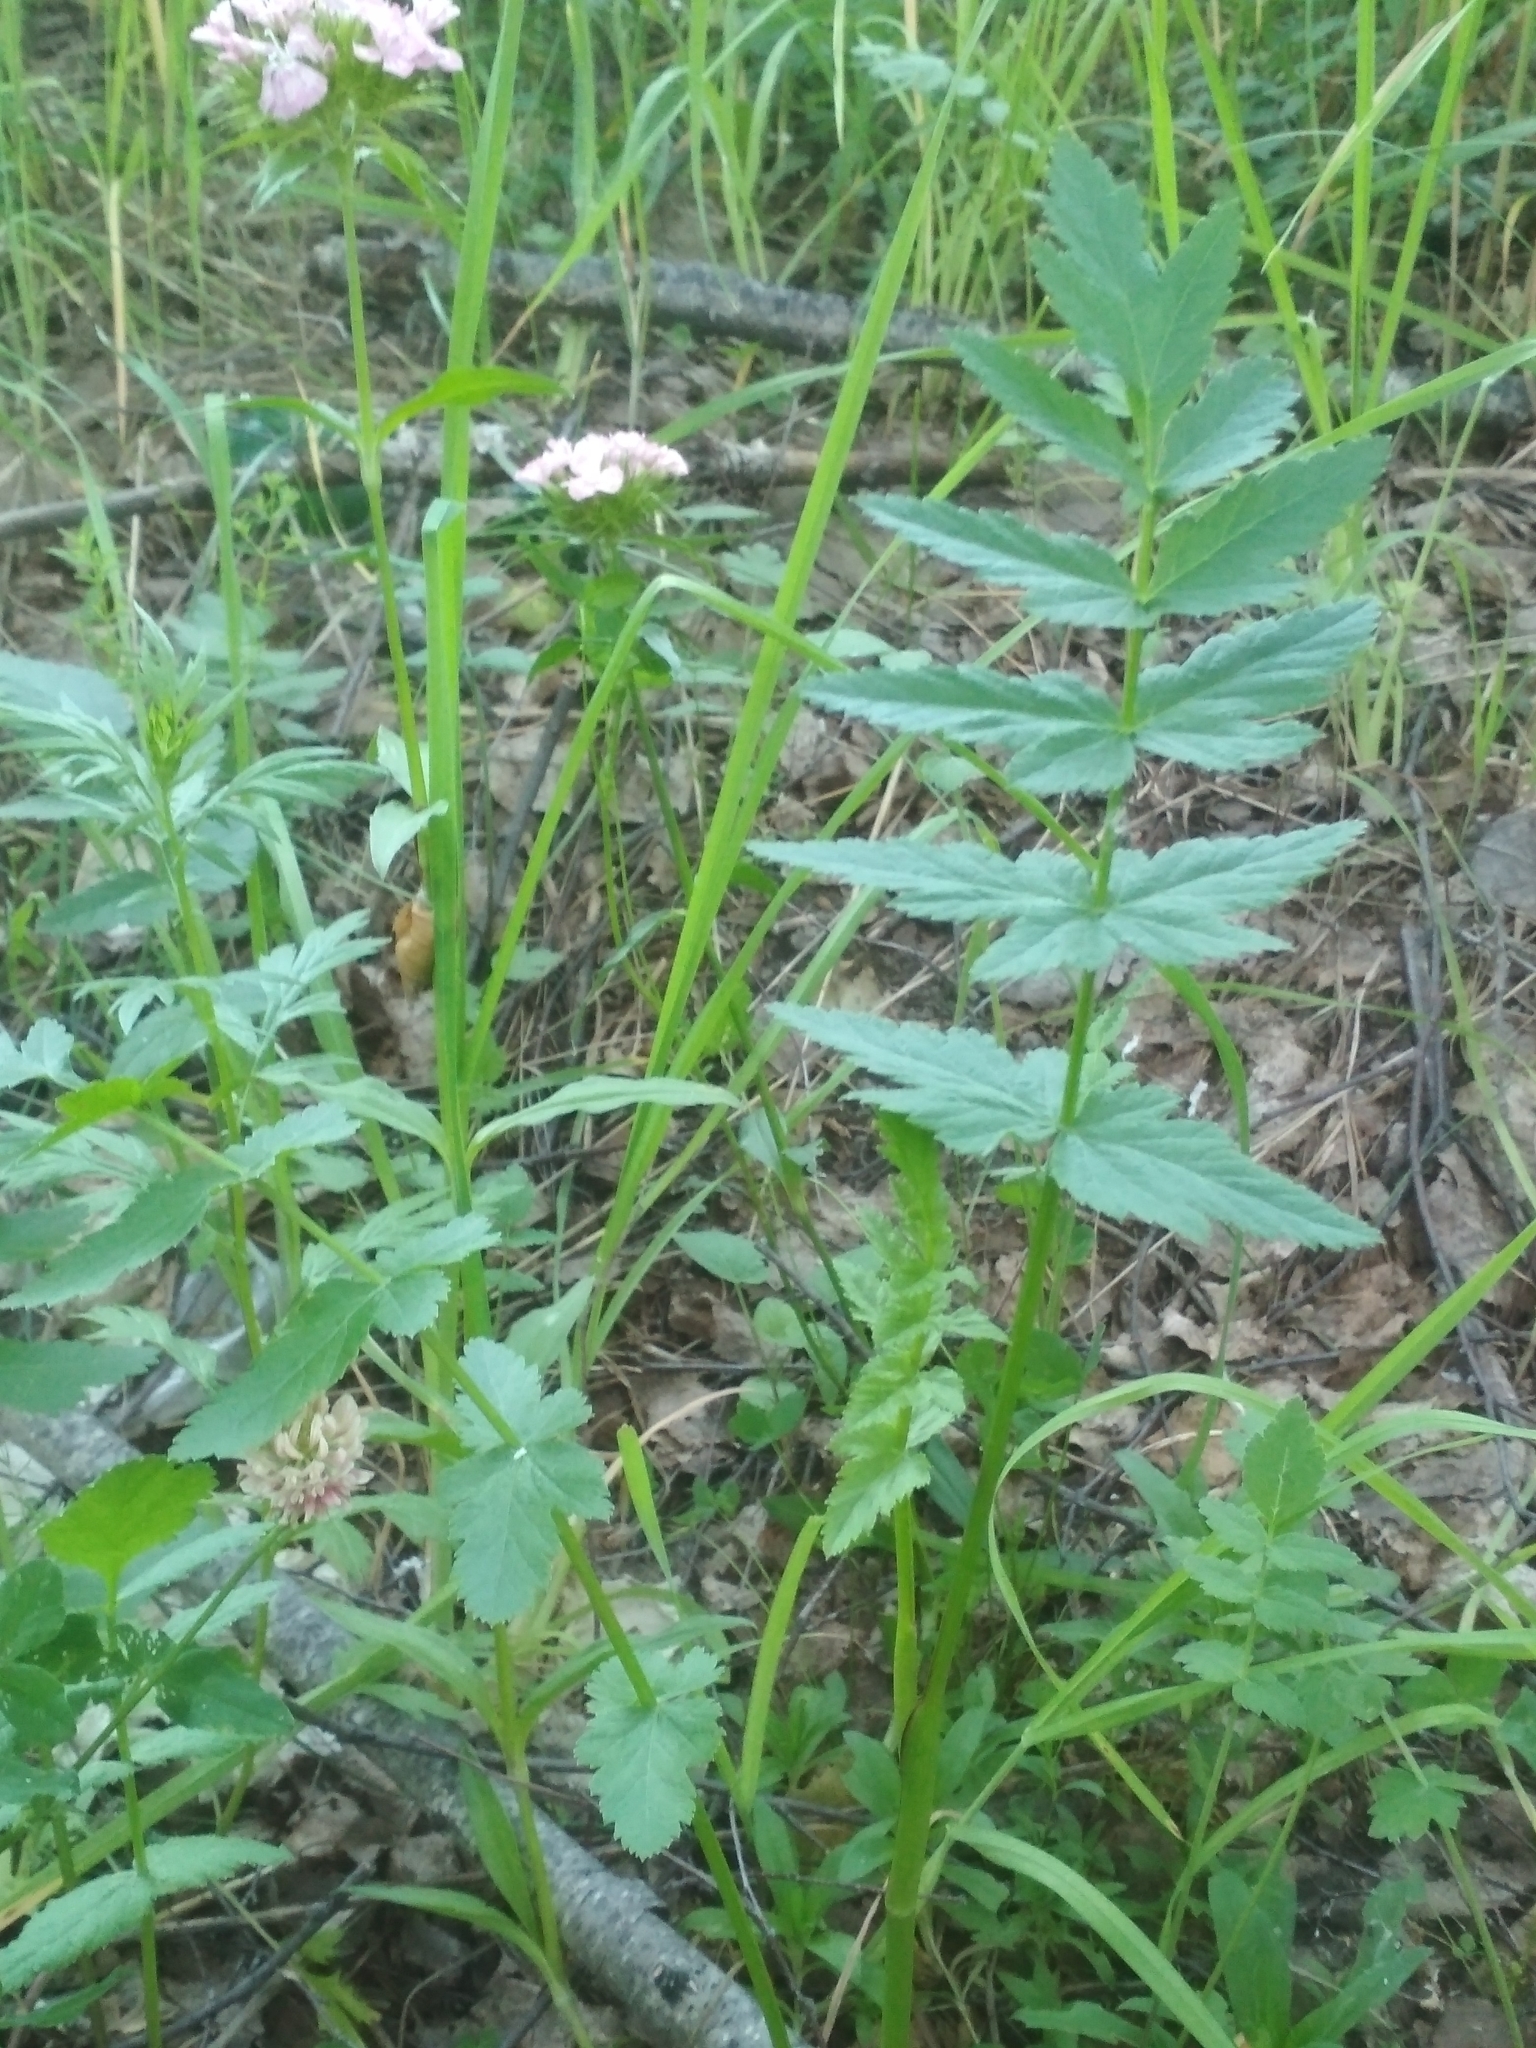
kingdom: Plantae
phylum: Tracheophyta
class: Magnoliopsida
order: Apiales
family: Apiaceae
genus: Pastinaca
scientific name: Pastinaca sativa
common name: Wild parsnip
